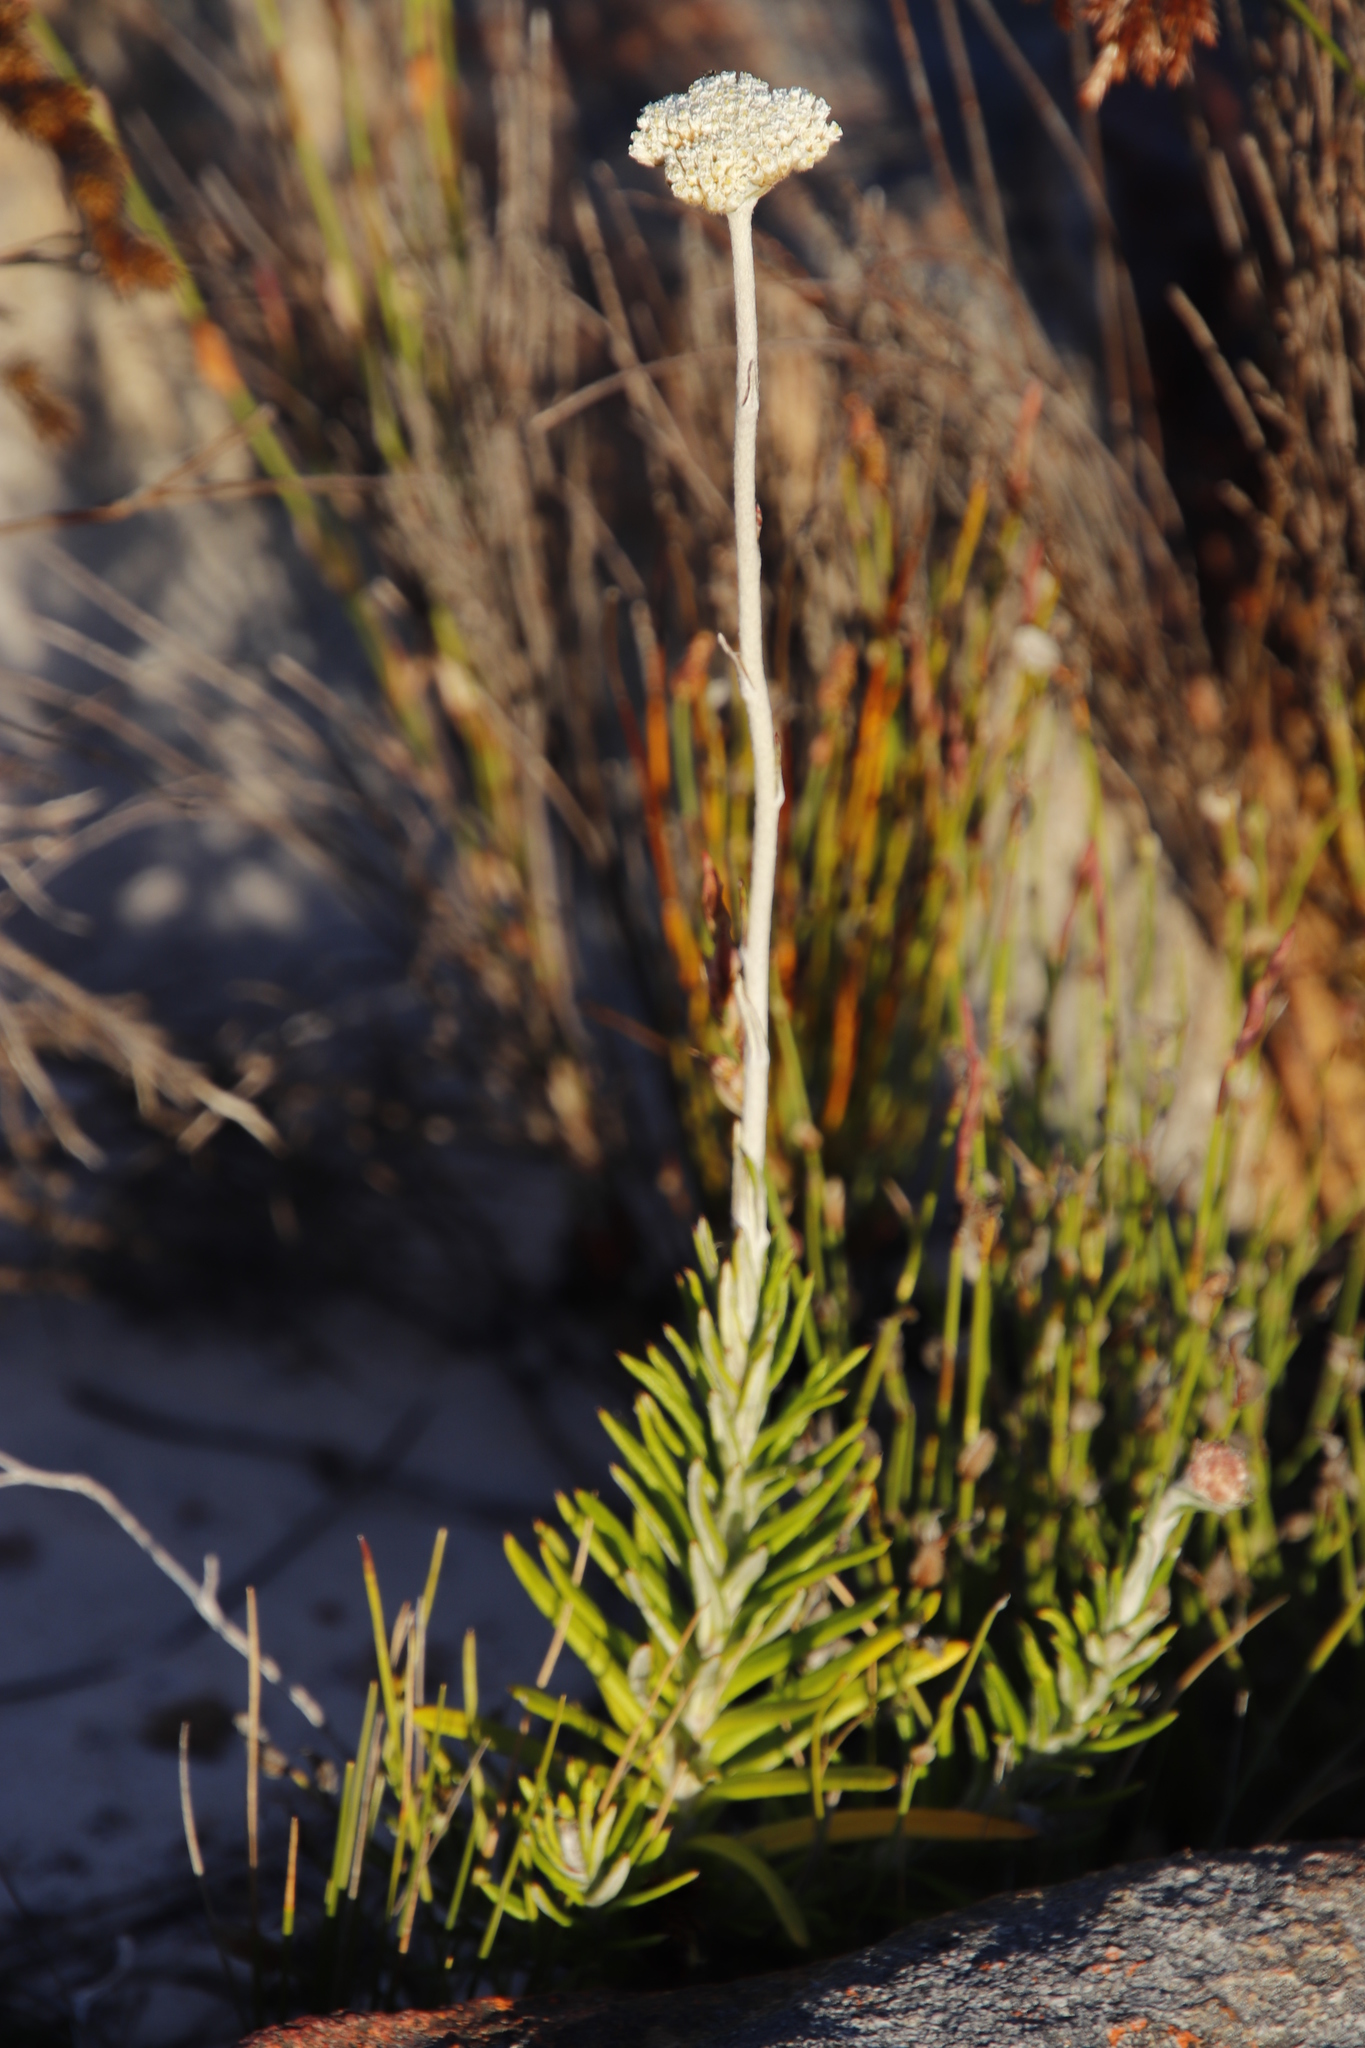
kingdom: Plantae
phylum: Tracheophyta
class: Magnoliopsida
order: Asterales
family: Asteraceae
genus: Anaxeton
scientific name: Anaxeton laeve
